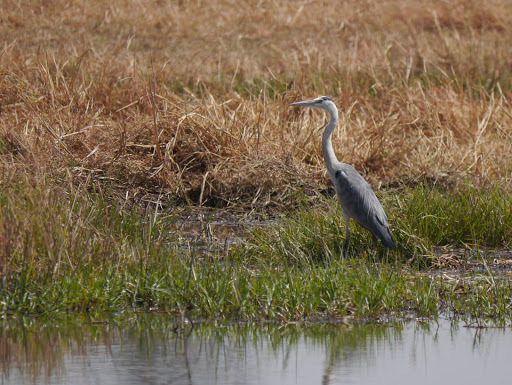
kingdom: Animalia
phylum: Chordata
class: Aves
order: Pelecaniformes
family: Ardeidae
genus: Ardea
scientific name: Ardea cinerea
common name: Grey heron
